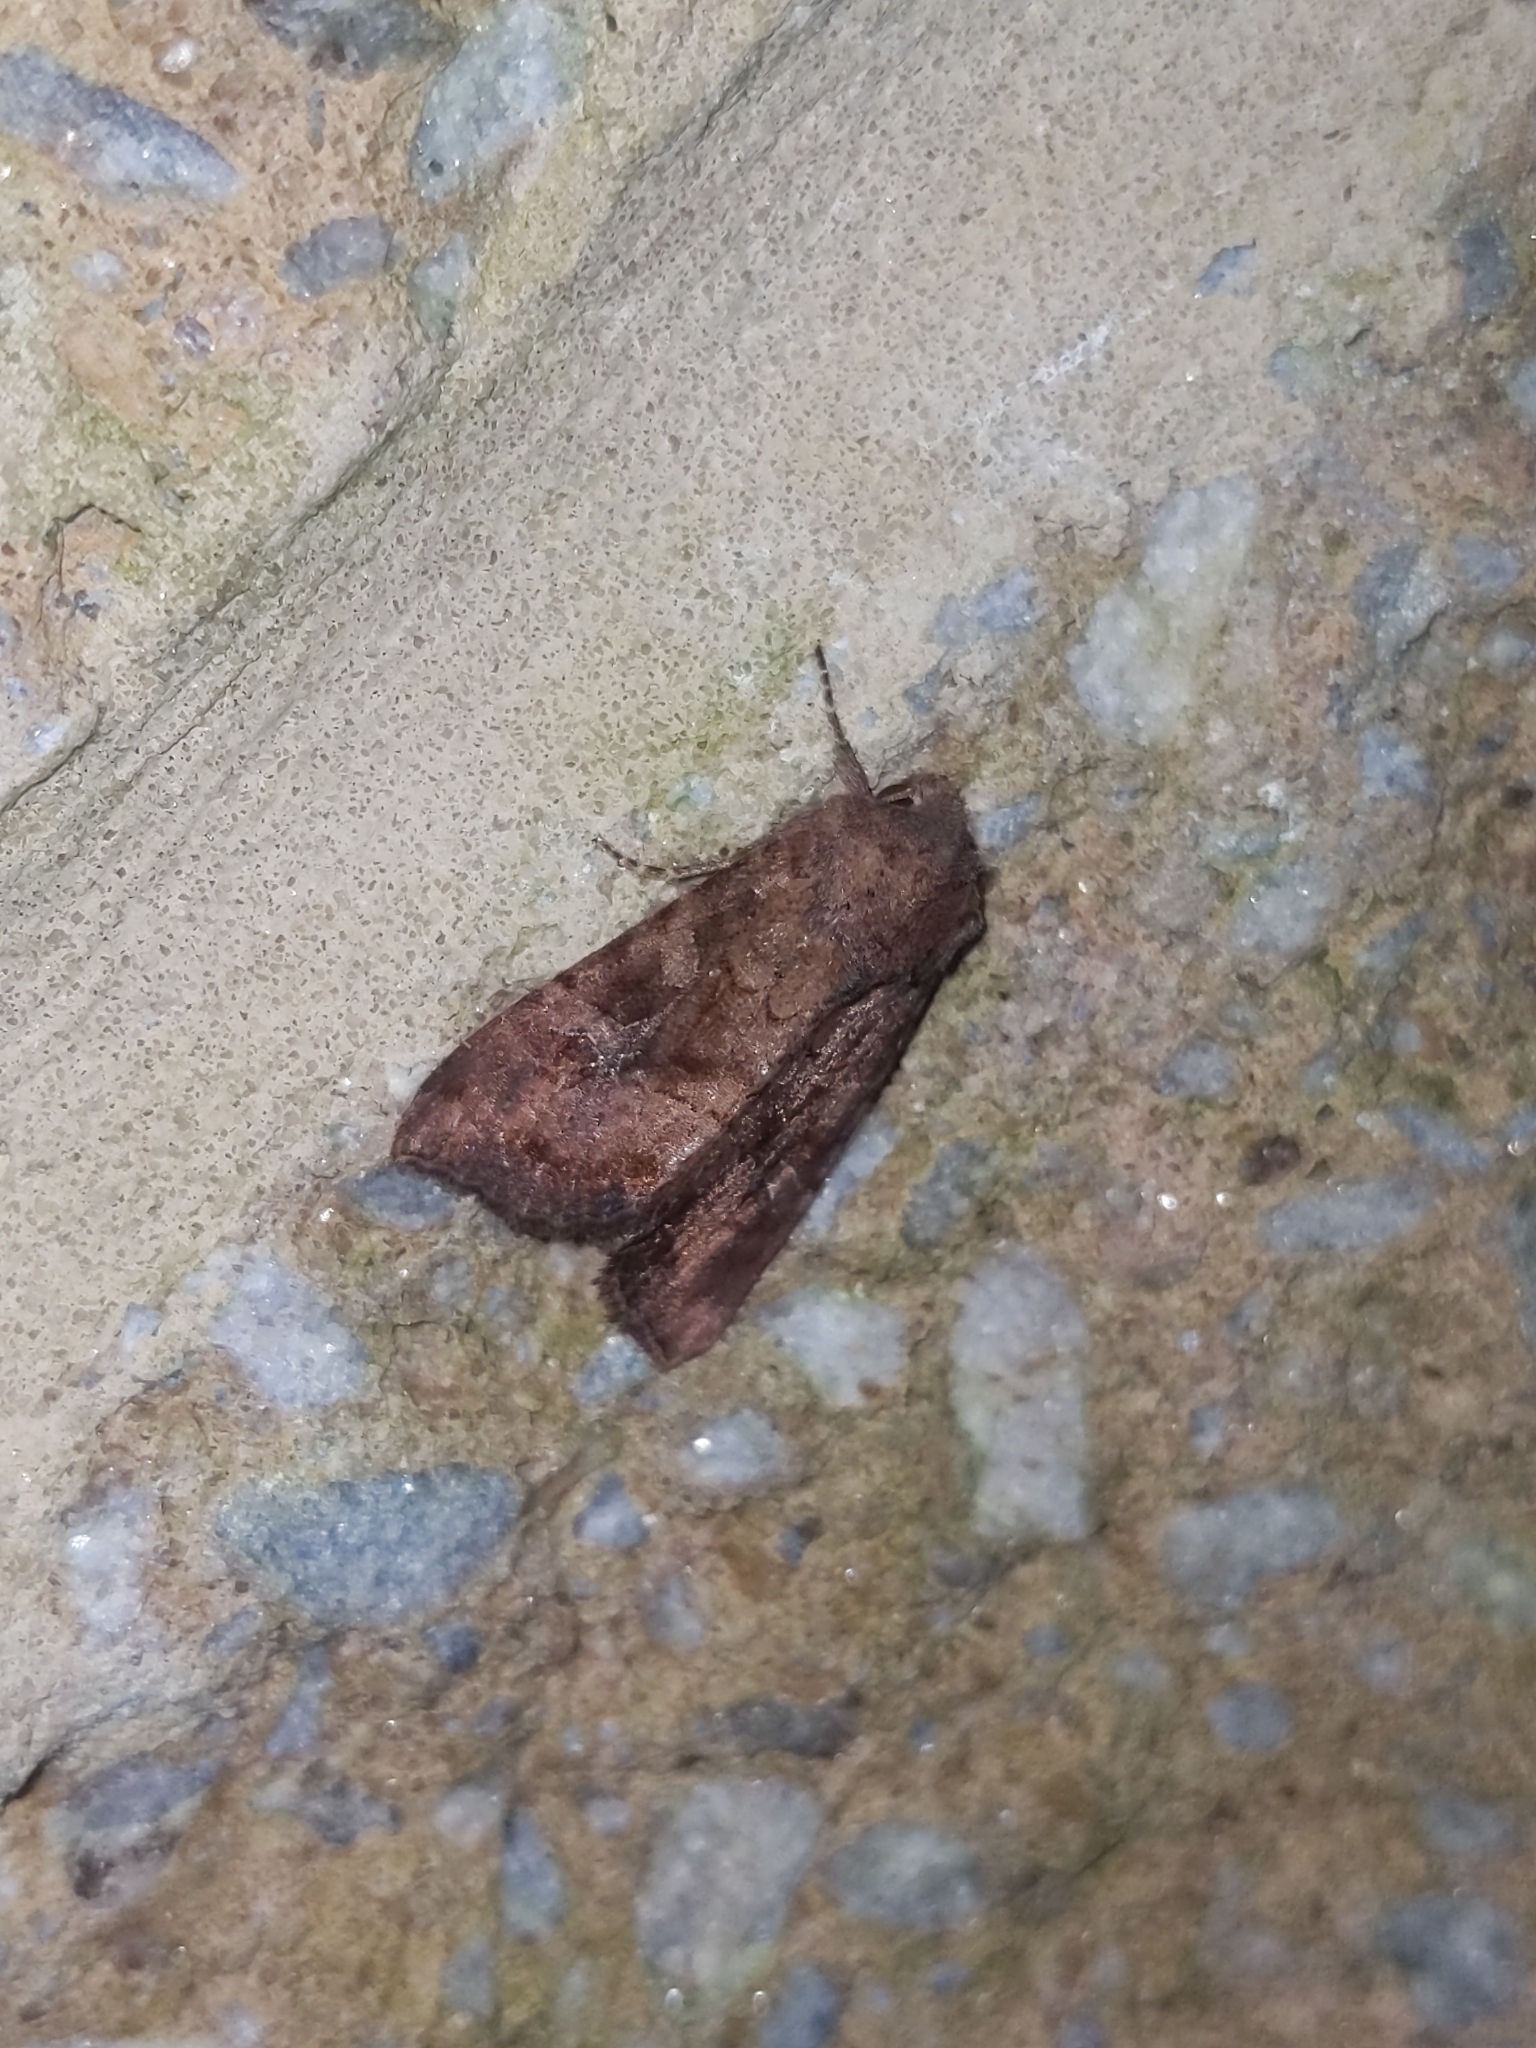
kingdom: Animalia
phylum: Arthropoda
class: Insecta
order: Lepidoptera
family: Noctuidae
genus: Loscopia
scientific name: Loscopia velata
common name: Veiled ear moth
